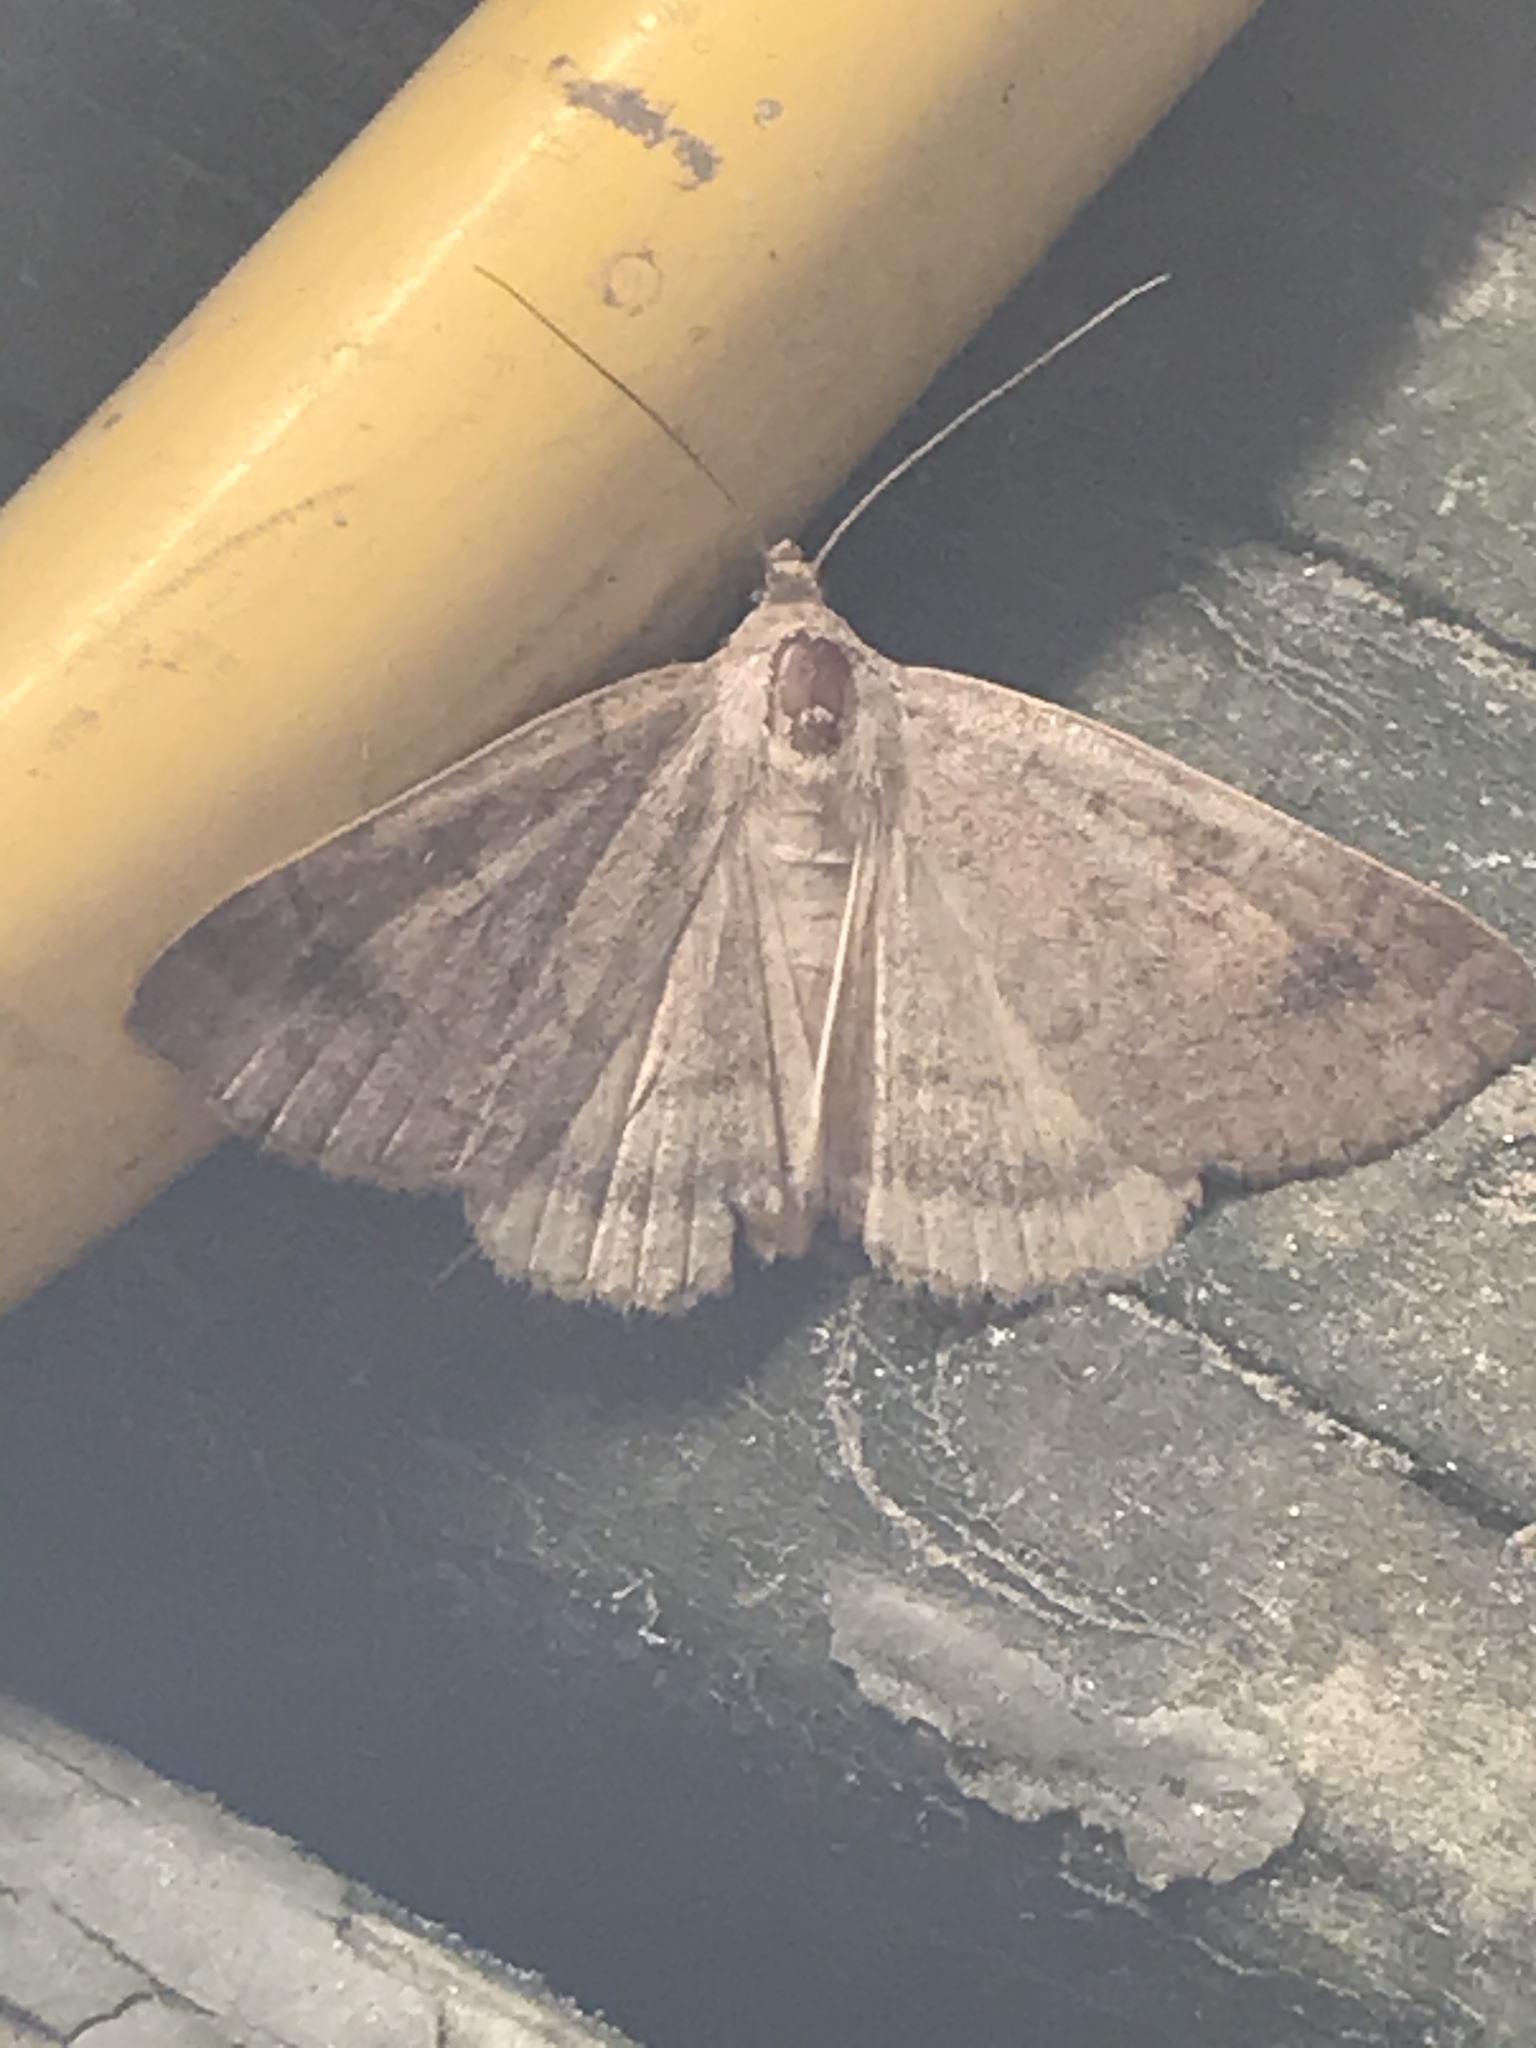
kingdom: Animalia
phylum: Arthropoda
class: Insecta
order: Lepidoptera
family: Erebidae
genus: Caenurgia
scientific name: Caenurgia chloropha
